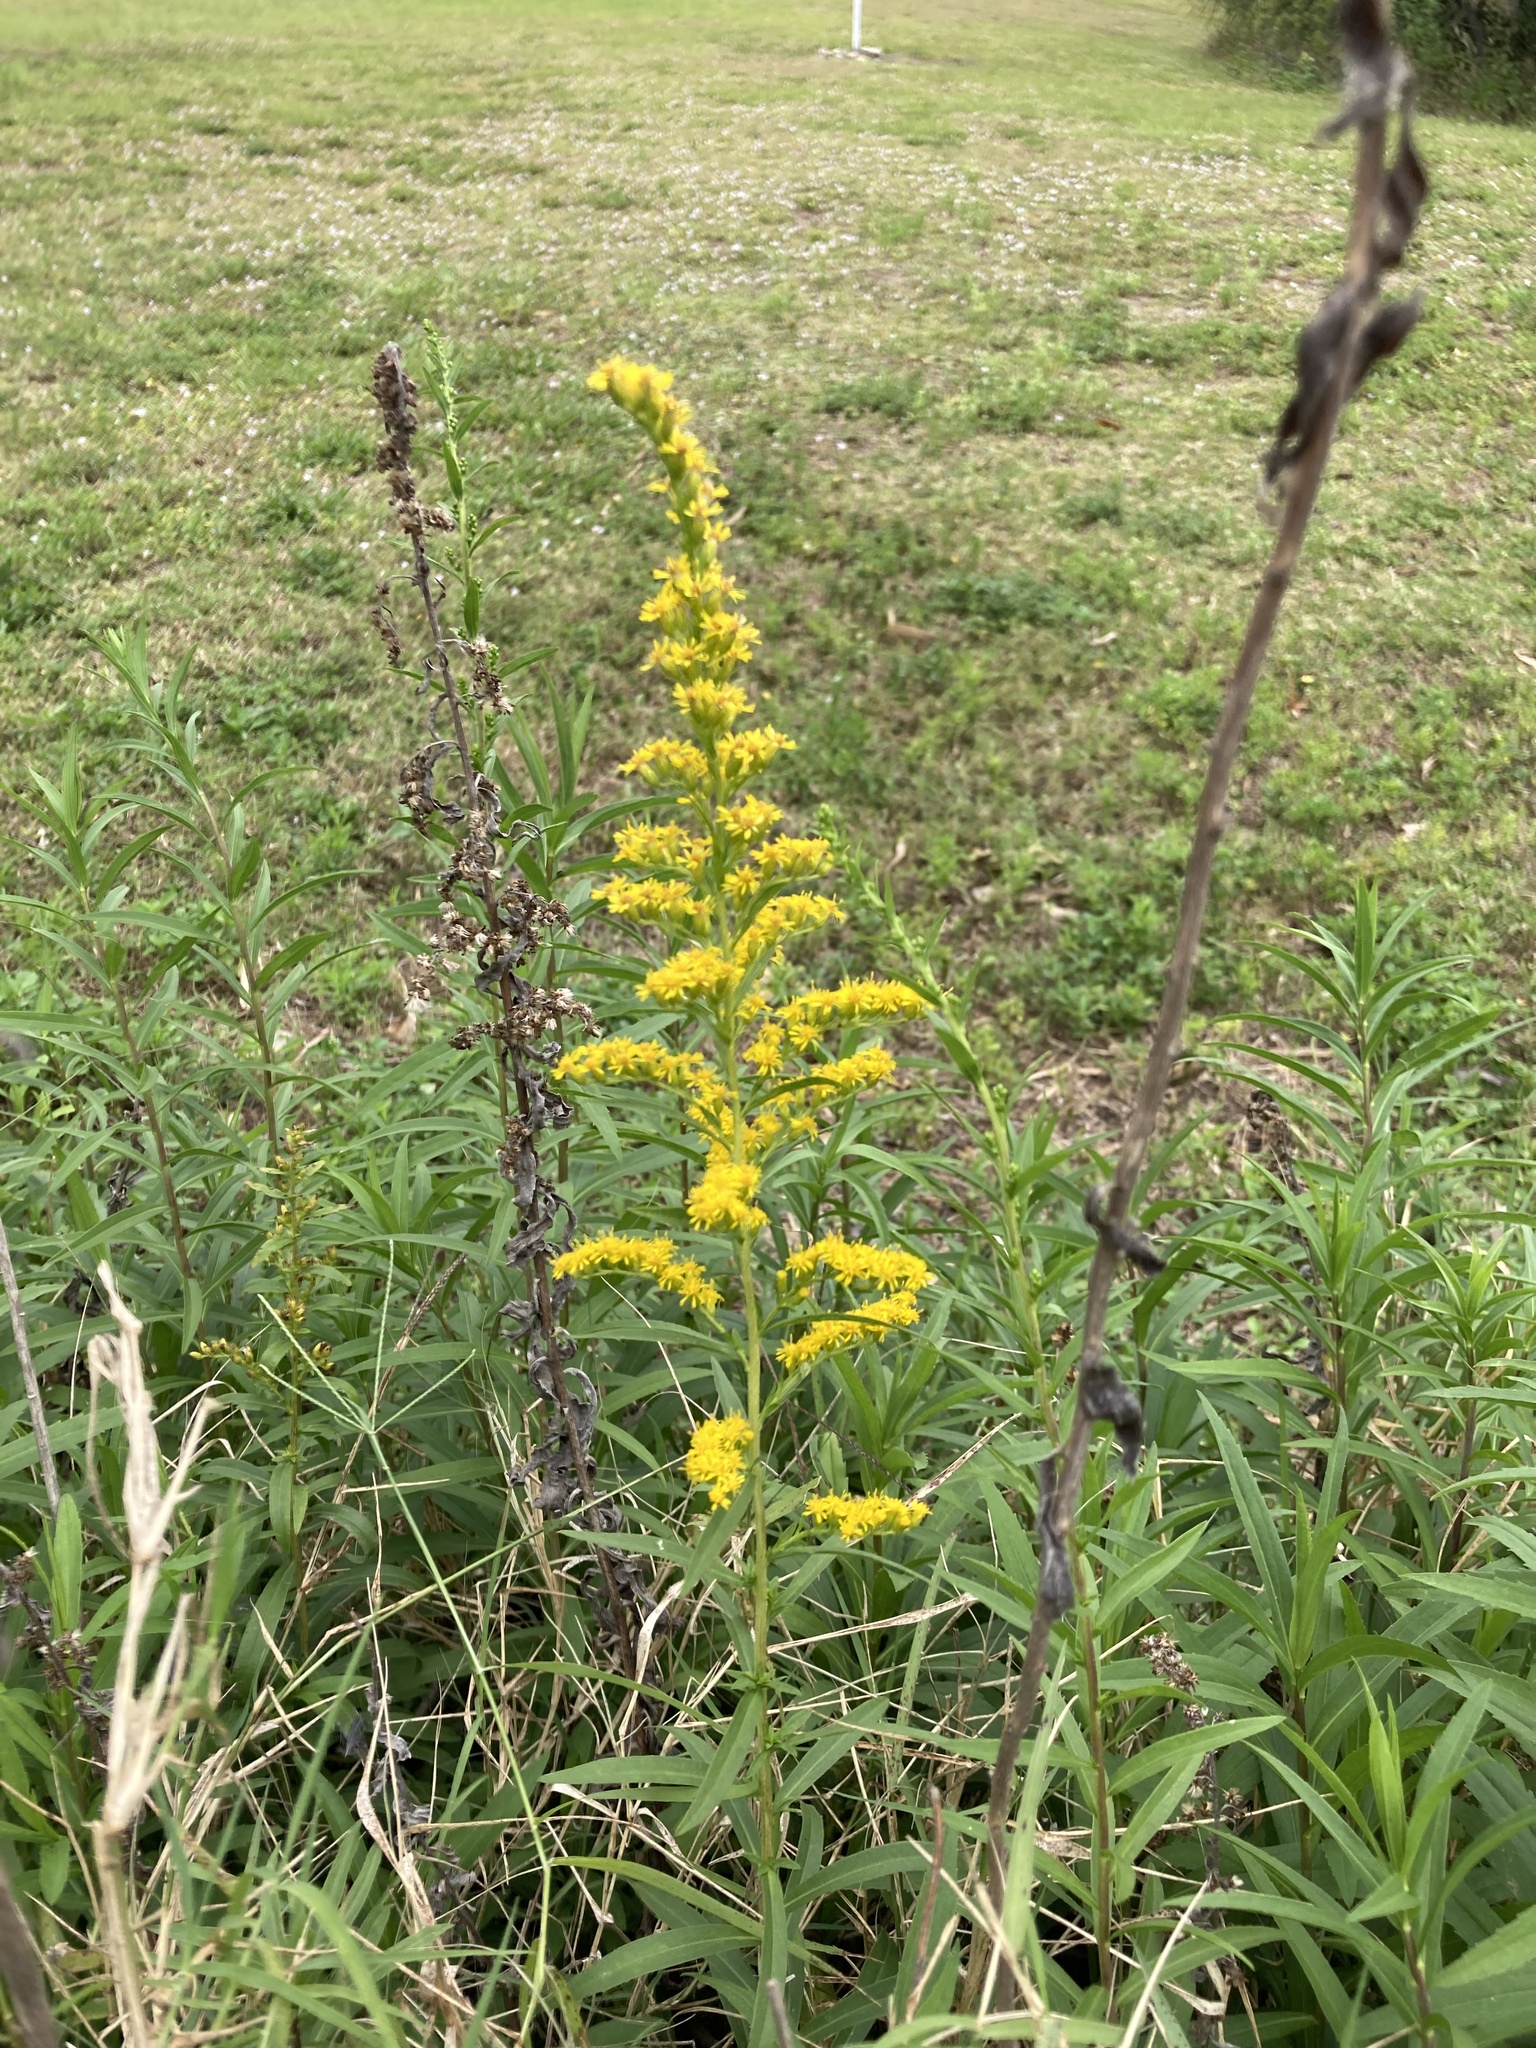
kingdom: Plantae
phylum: Tracheophyta
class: Magnoliopsida
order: Asterales
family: Asteraceae
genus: Solidago
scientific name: Solidago leavenworthii
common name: Leavenworth's goldenrod
